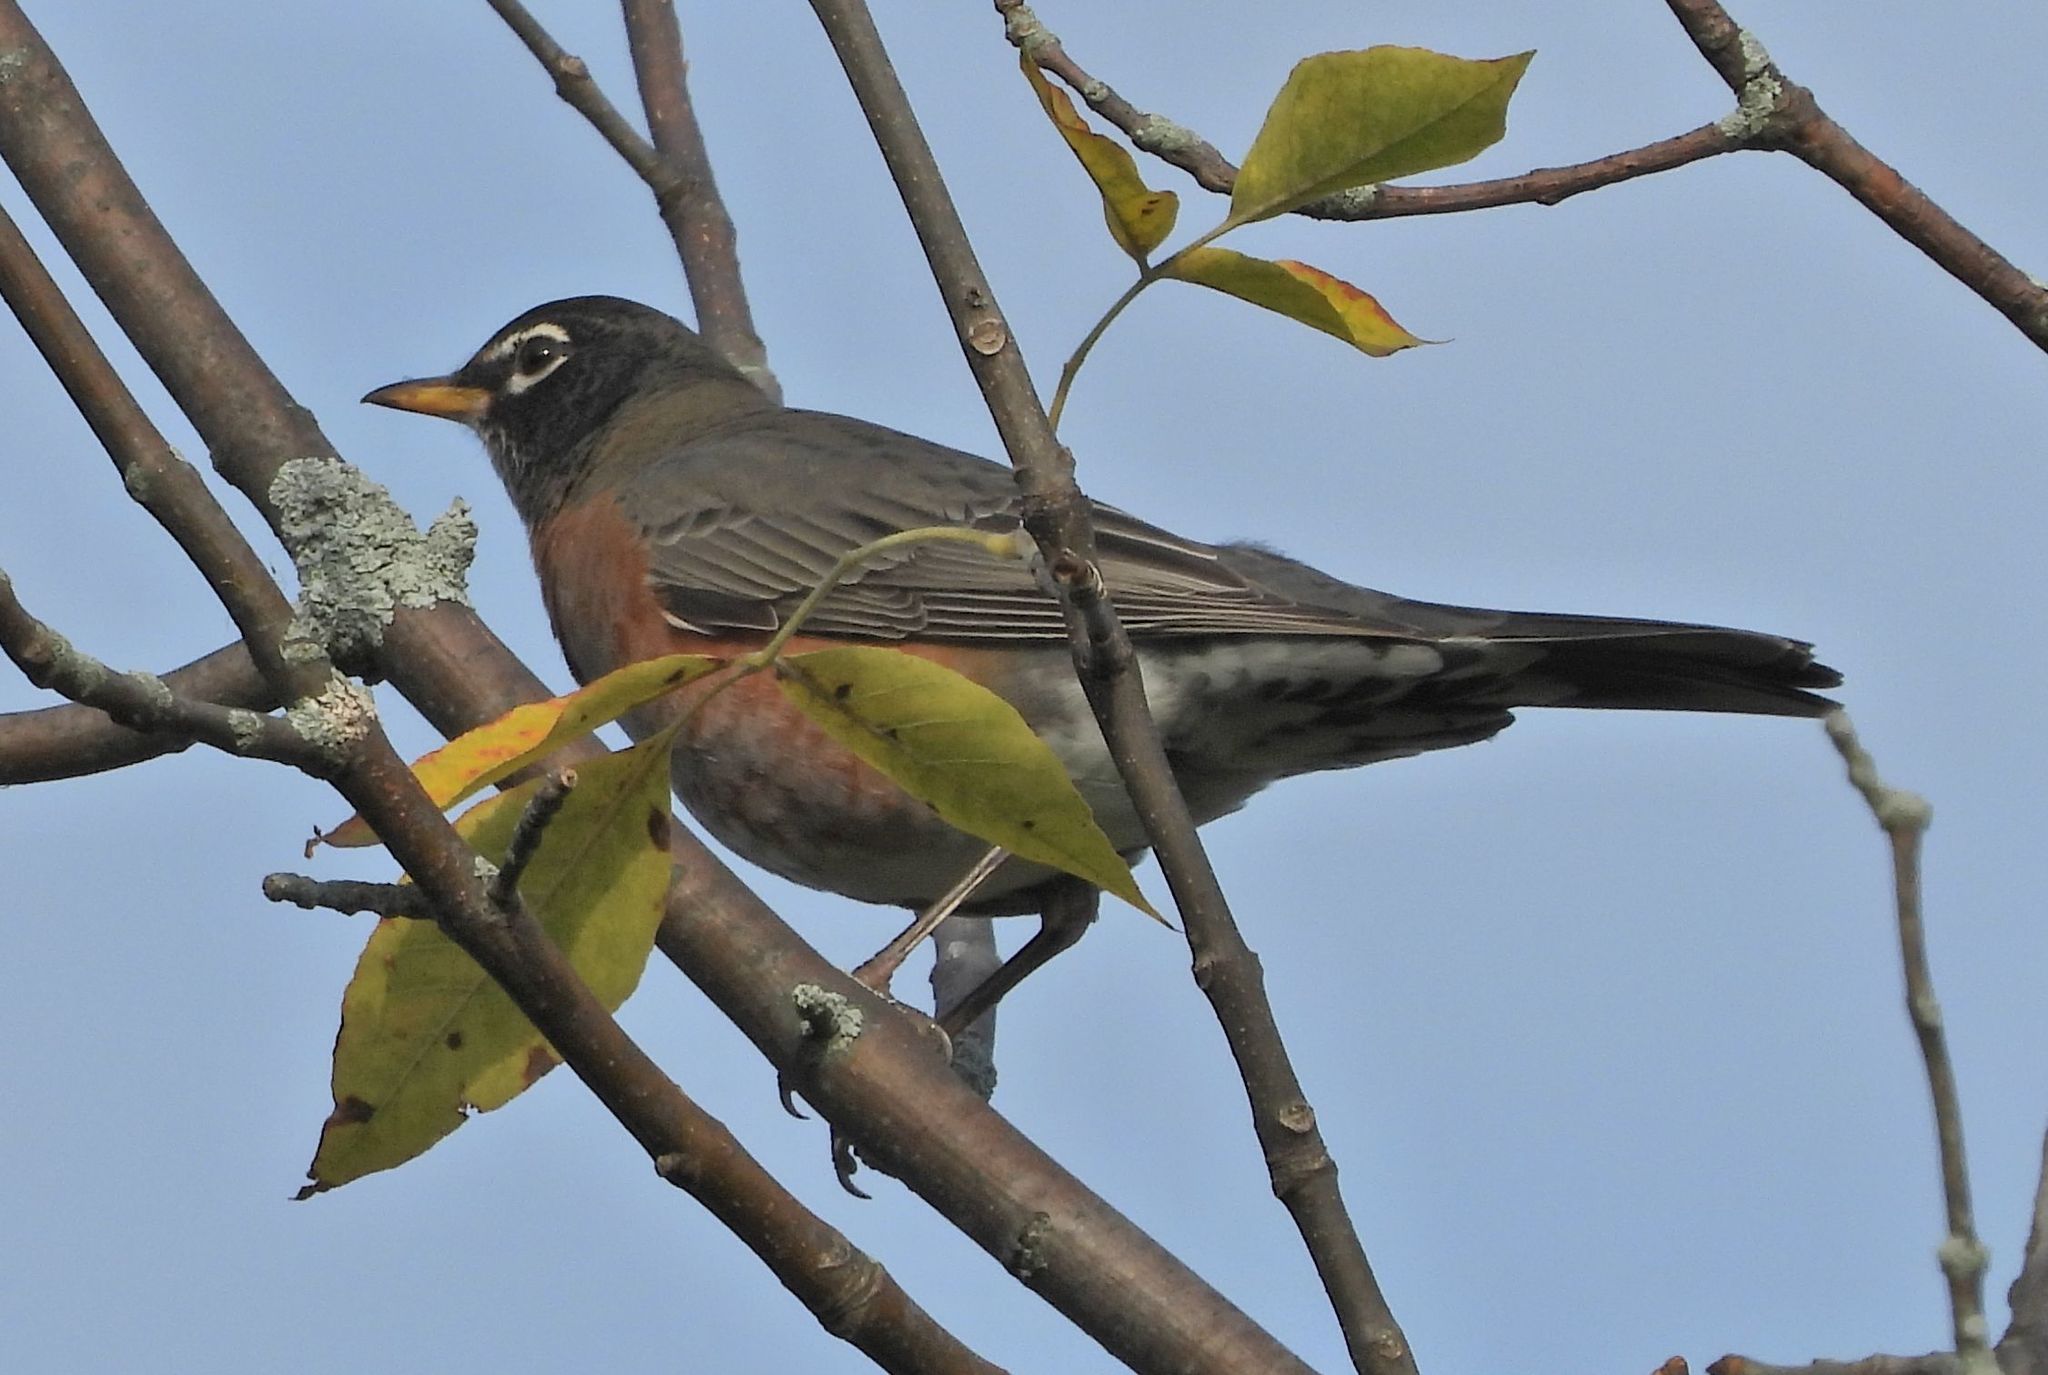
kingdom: Animalia
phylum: Chordata
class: Aves
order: Passeriformes
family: Turdidae
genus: Turdus
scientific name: Turdus migratorius
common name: American robin
